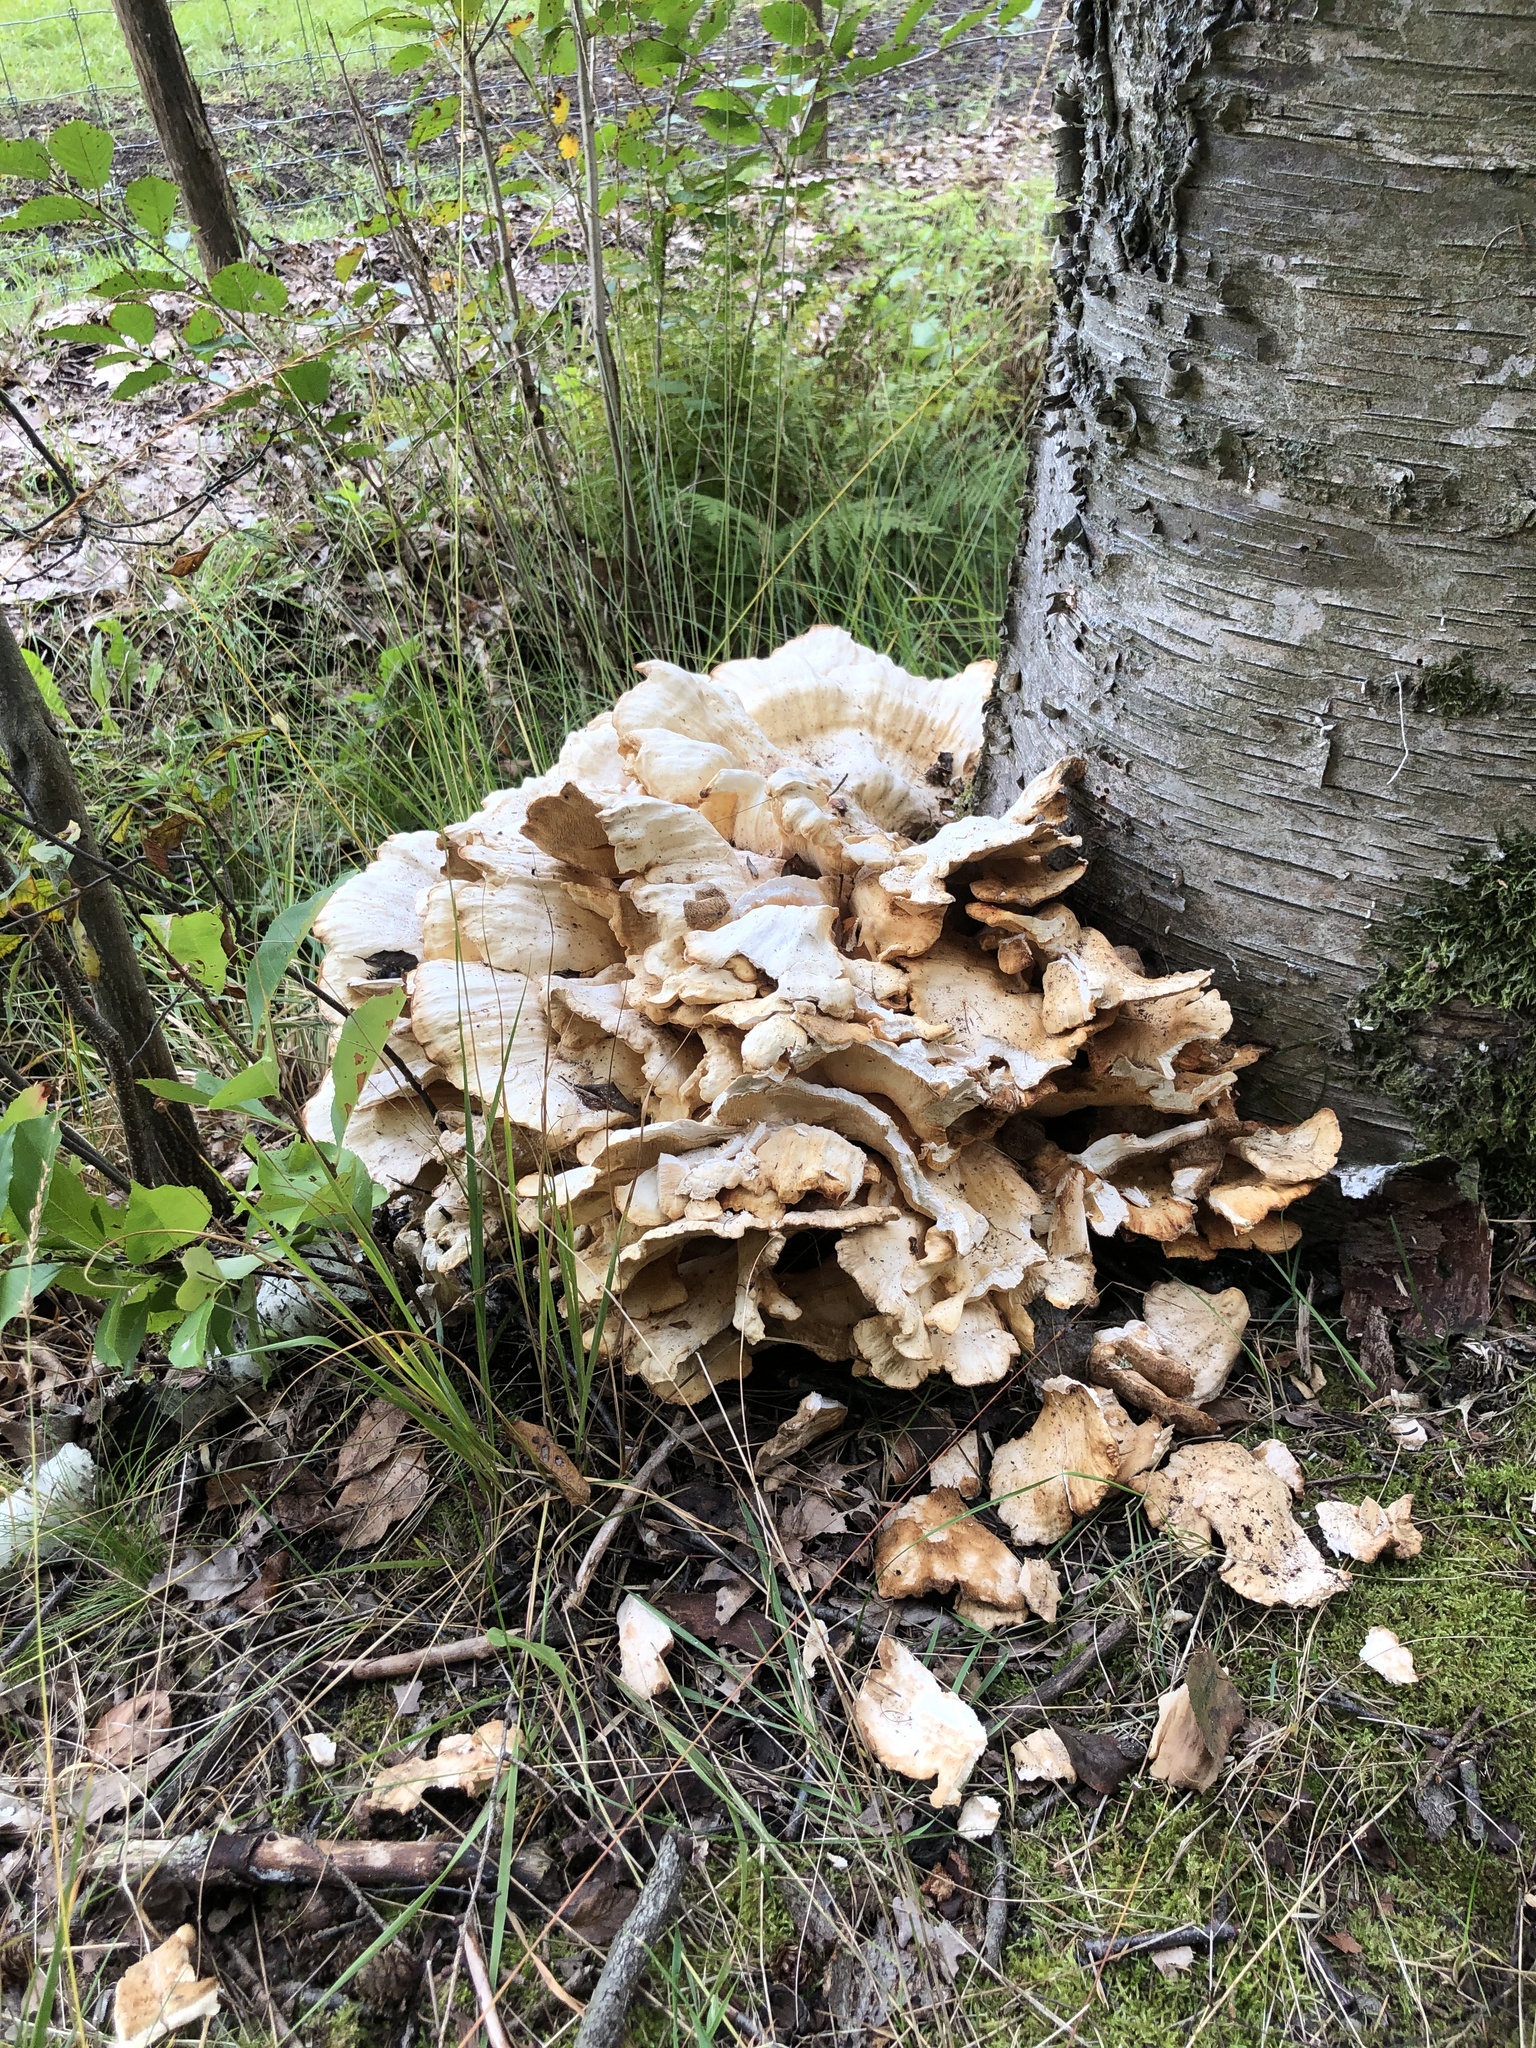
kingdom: Fungi
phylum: Basidiomycota
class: Agaricomycetes
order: Polyporales
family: Laetiporaceae
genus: Laetiporus
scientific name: Laetiporus sulphureus
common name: Chicken of the woods
